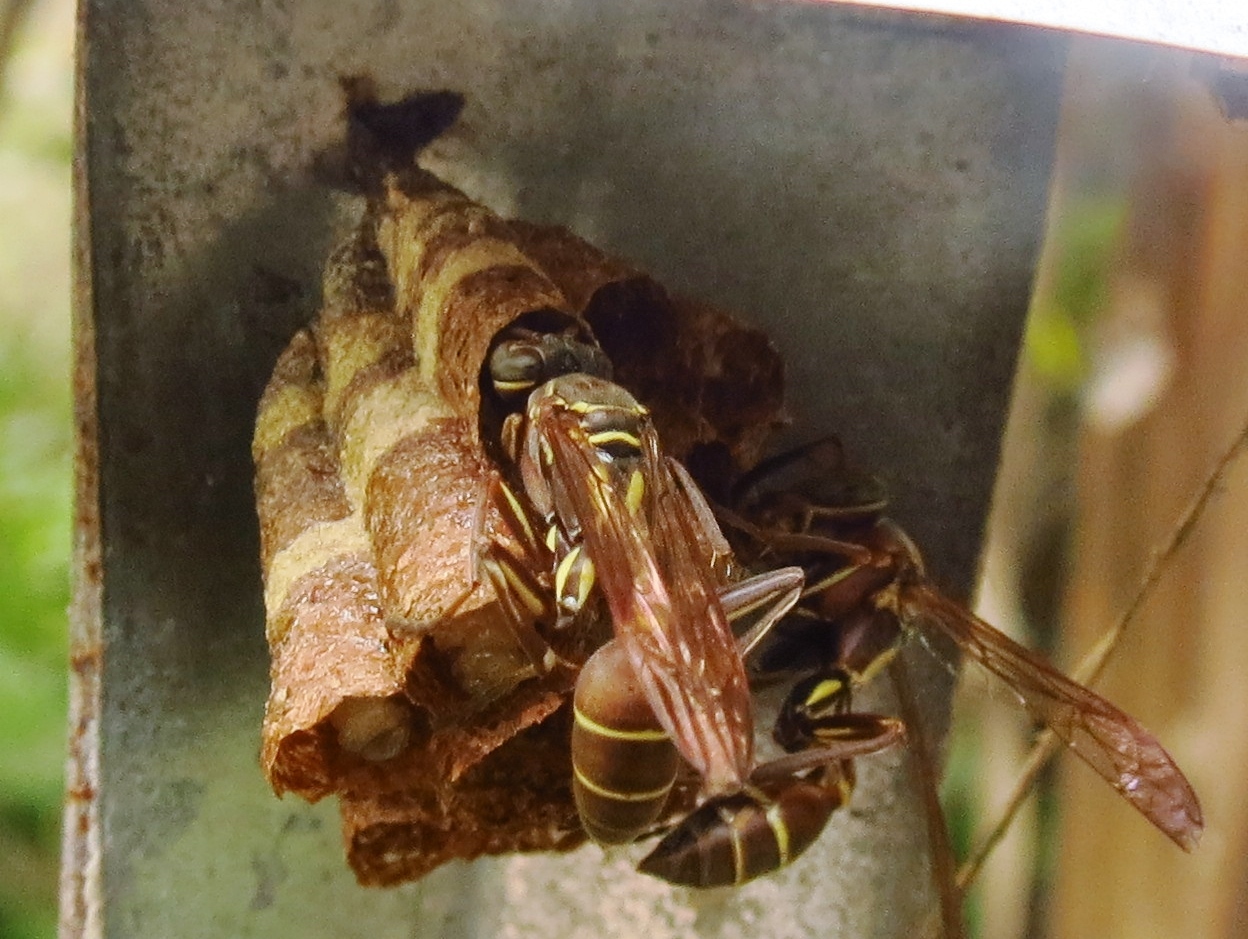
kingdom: Animalia
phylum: Arthropoda
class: Insecta
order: Hymenoptera
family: Vespidae
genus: Mischocyttarus
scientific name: Mischocyttarus mexicanus
